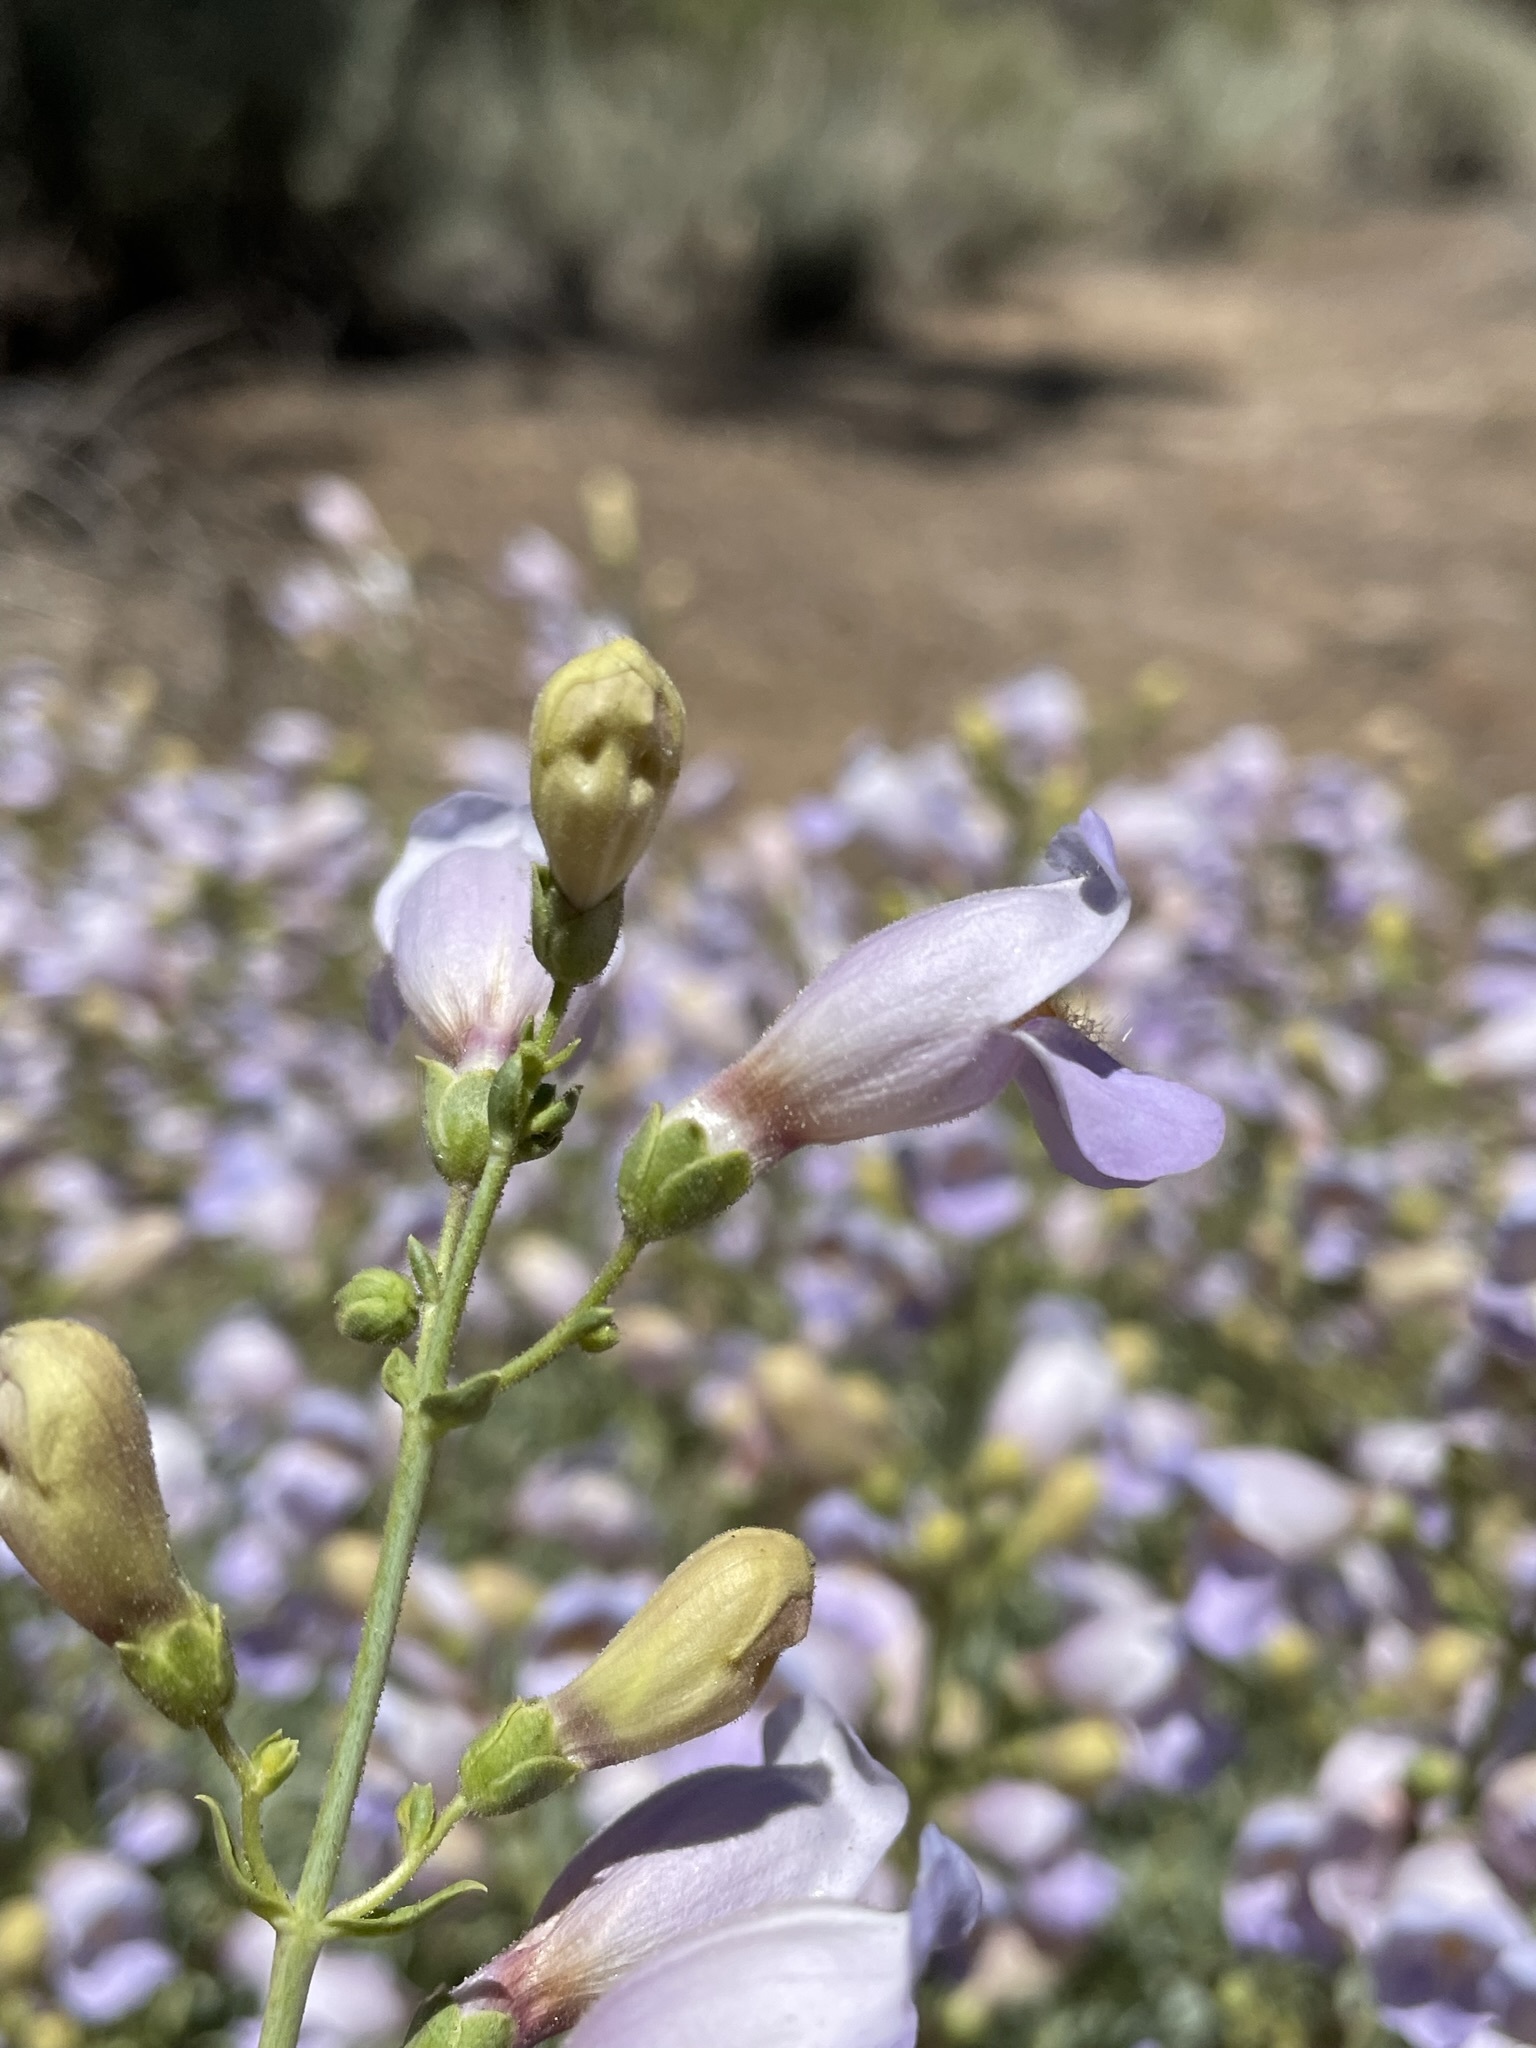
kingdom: Plantae
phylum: Tracheophyta
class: Magnoliopsida
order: Lamiales
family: Plantaginaceae
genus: Penstemon
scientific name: Penstemon fruticiformis
